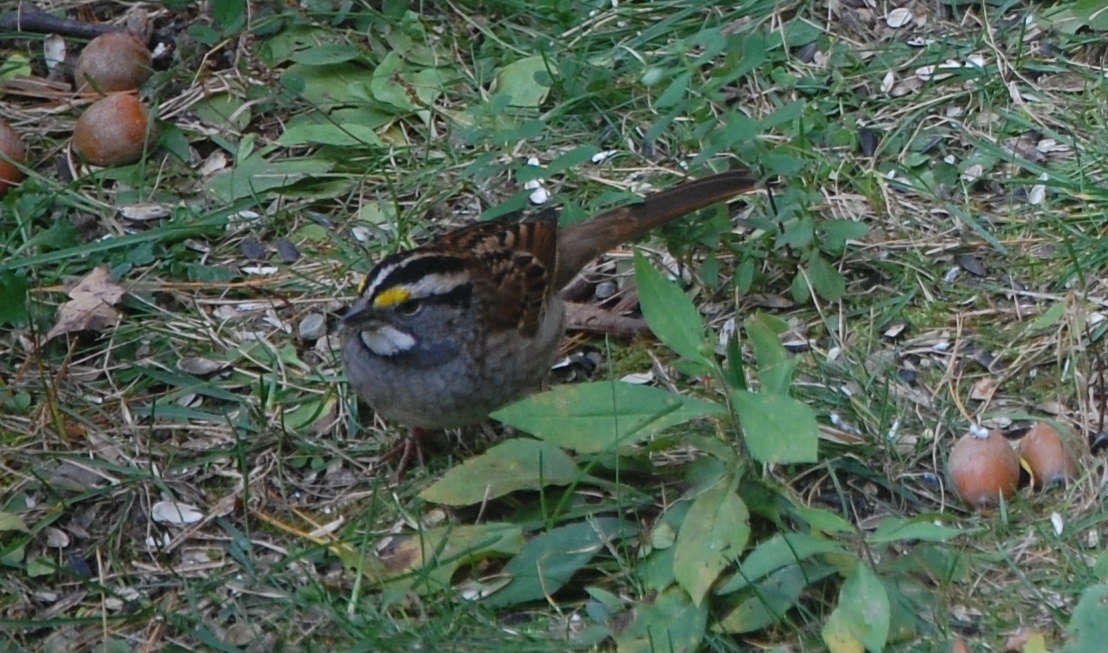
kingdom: Animalia
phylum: Chordata
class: Aves
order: Passeriformes
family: Passerellidae
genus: Zonotrichia
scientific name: Zonotrichia albicollis
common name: White-throated sparrow
